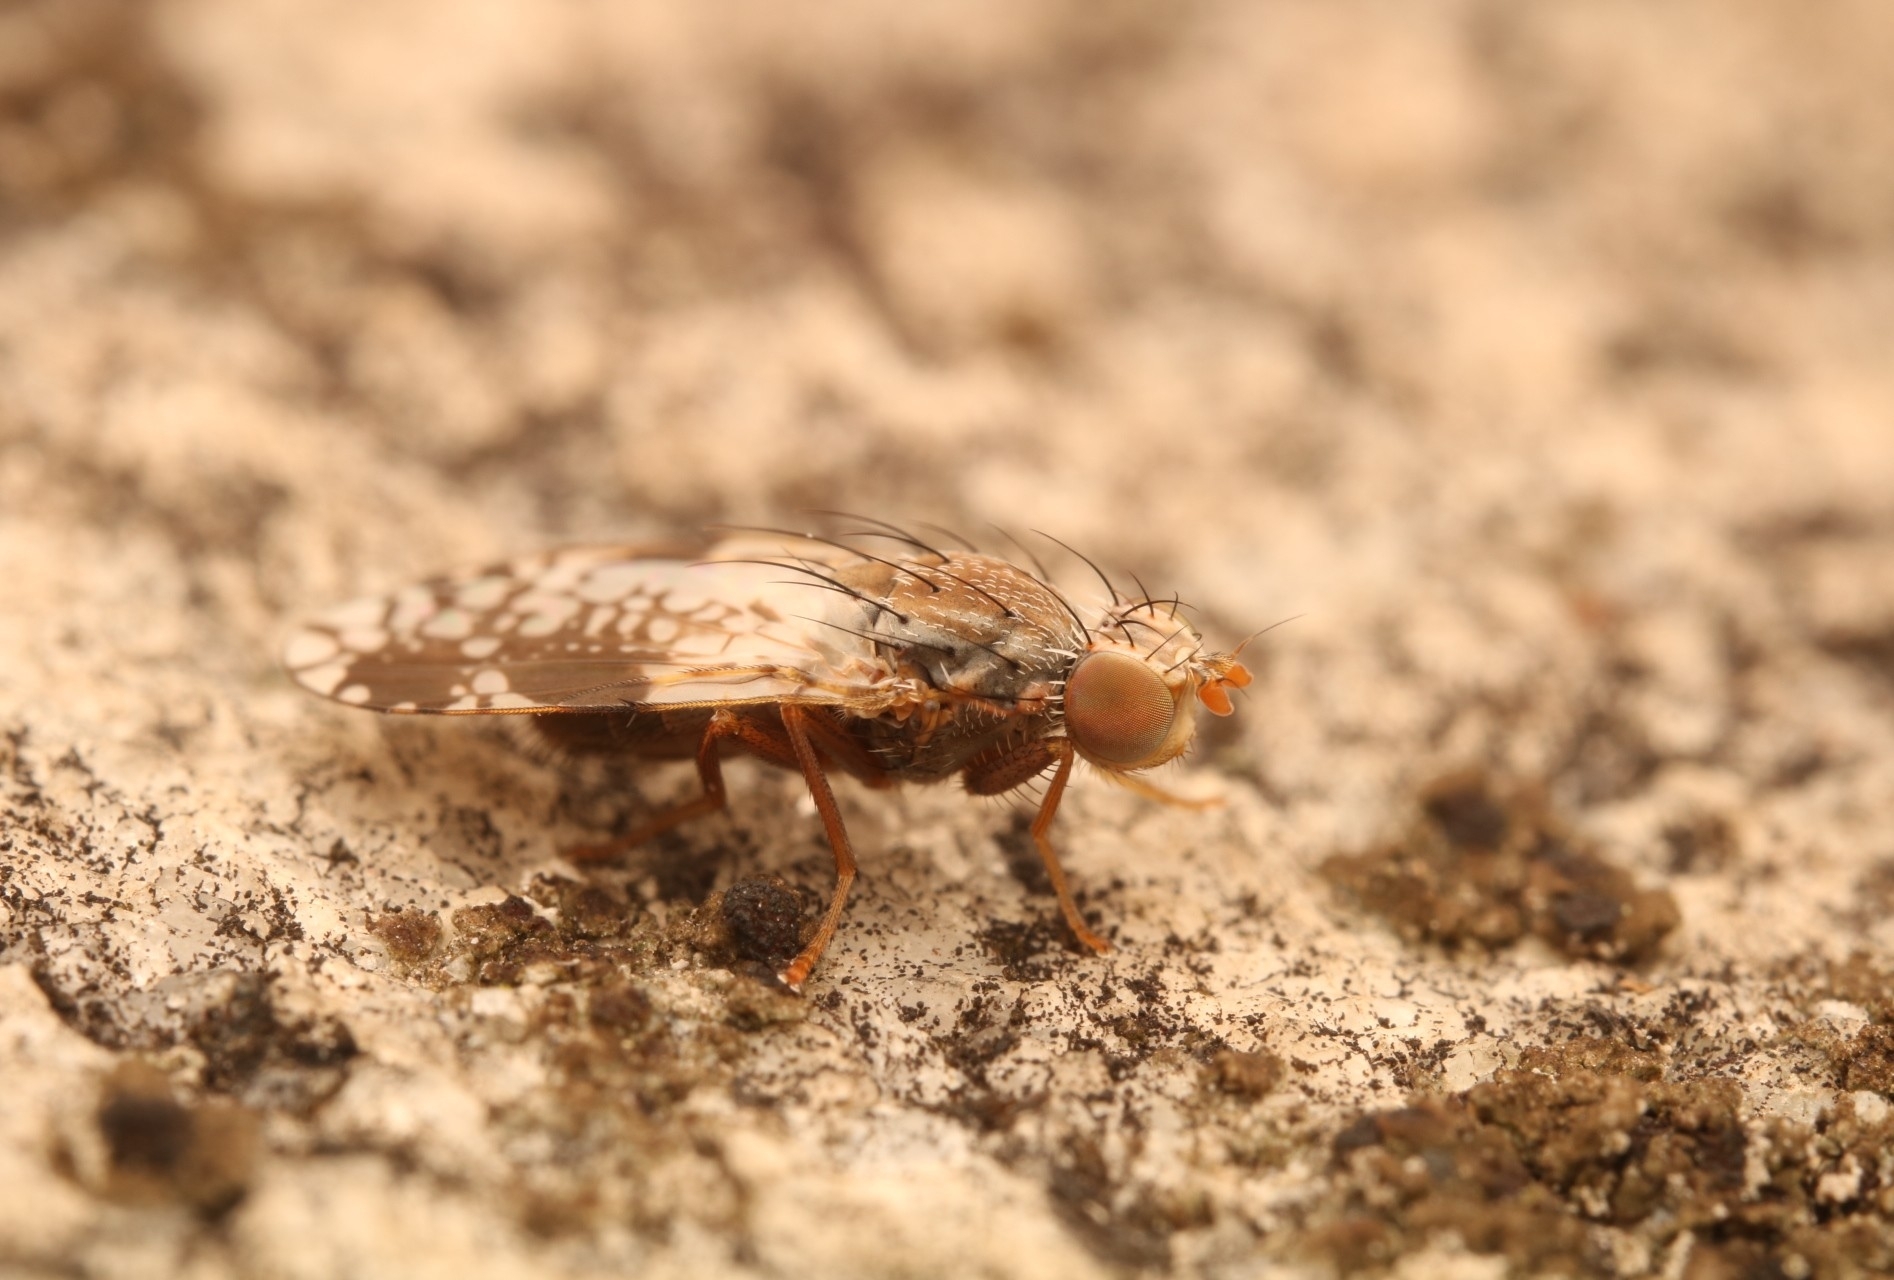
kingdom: Animalia
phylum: Arthropoda
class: Insecta
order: Diptera
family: Tephritidae
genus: Tephritis
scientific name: Tephritis pura
